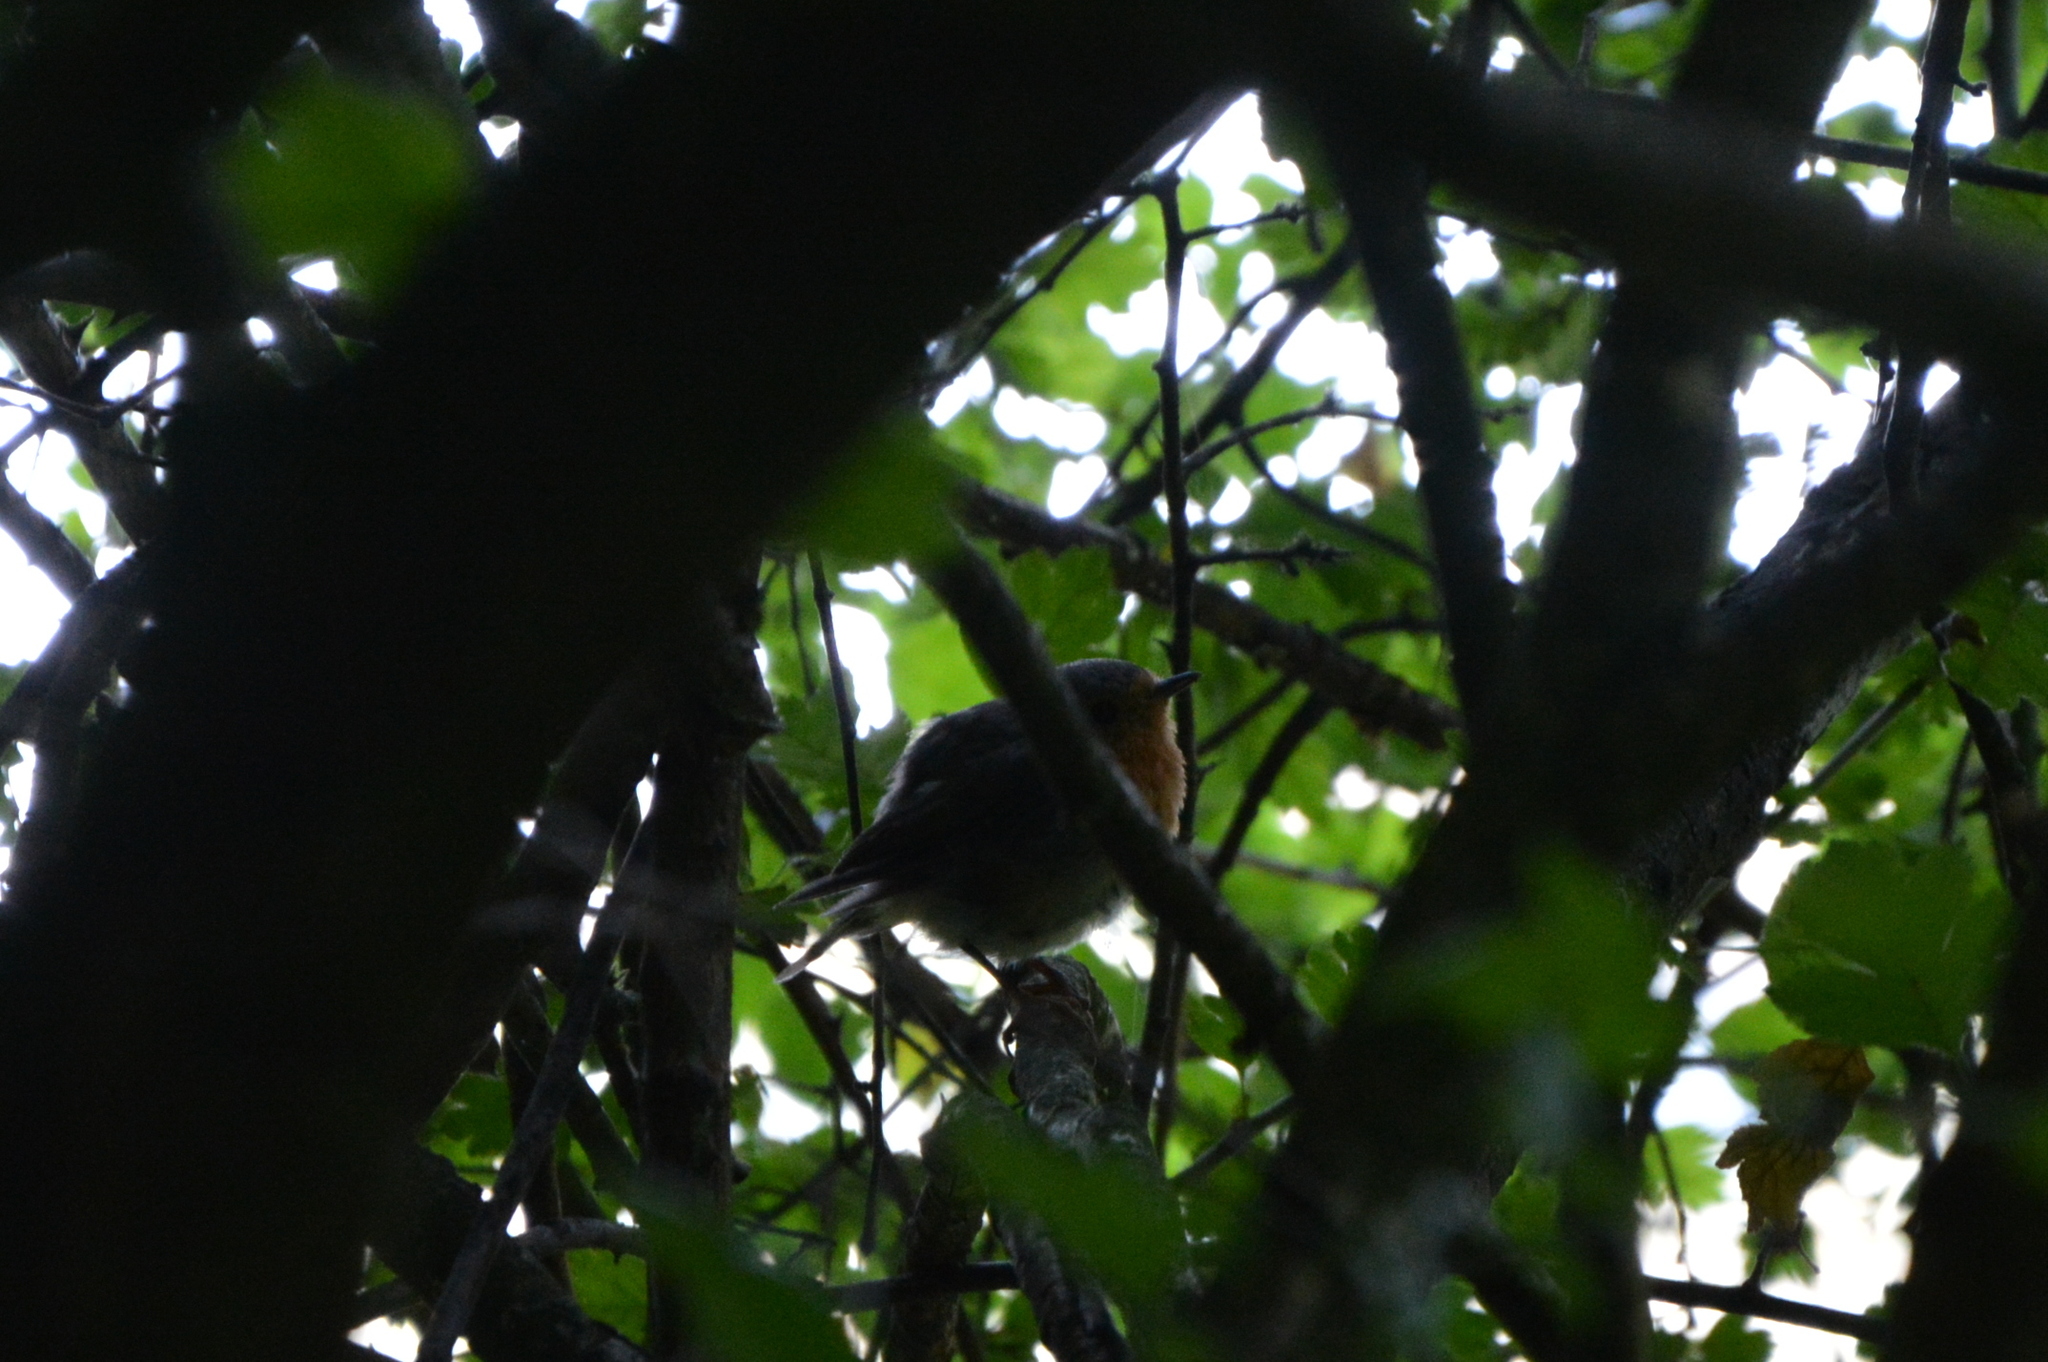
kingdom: Animalia
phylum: Chordata
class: Aves
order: Passeriformes
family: Muscicapidae
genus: Erithacus
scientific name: Erithacus rubecula
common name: European robin
